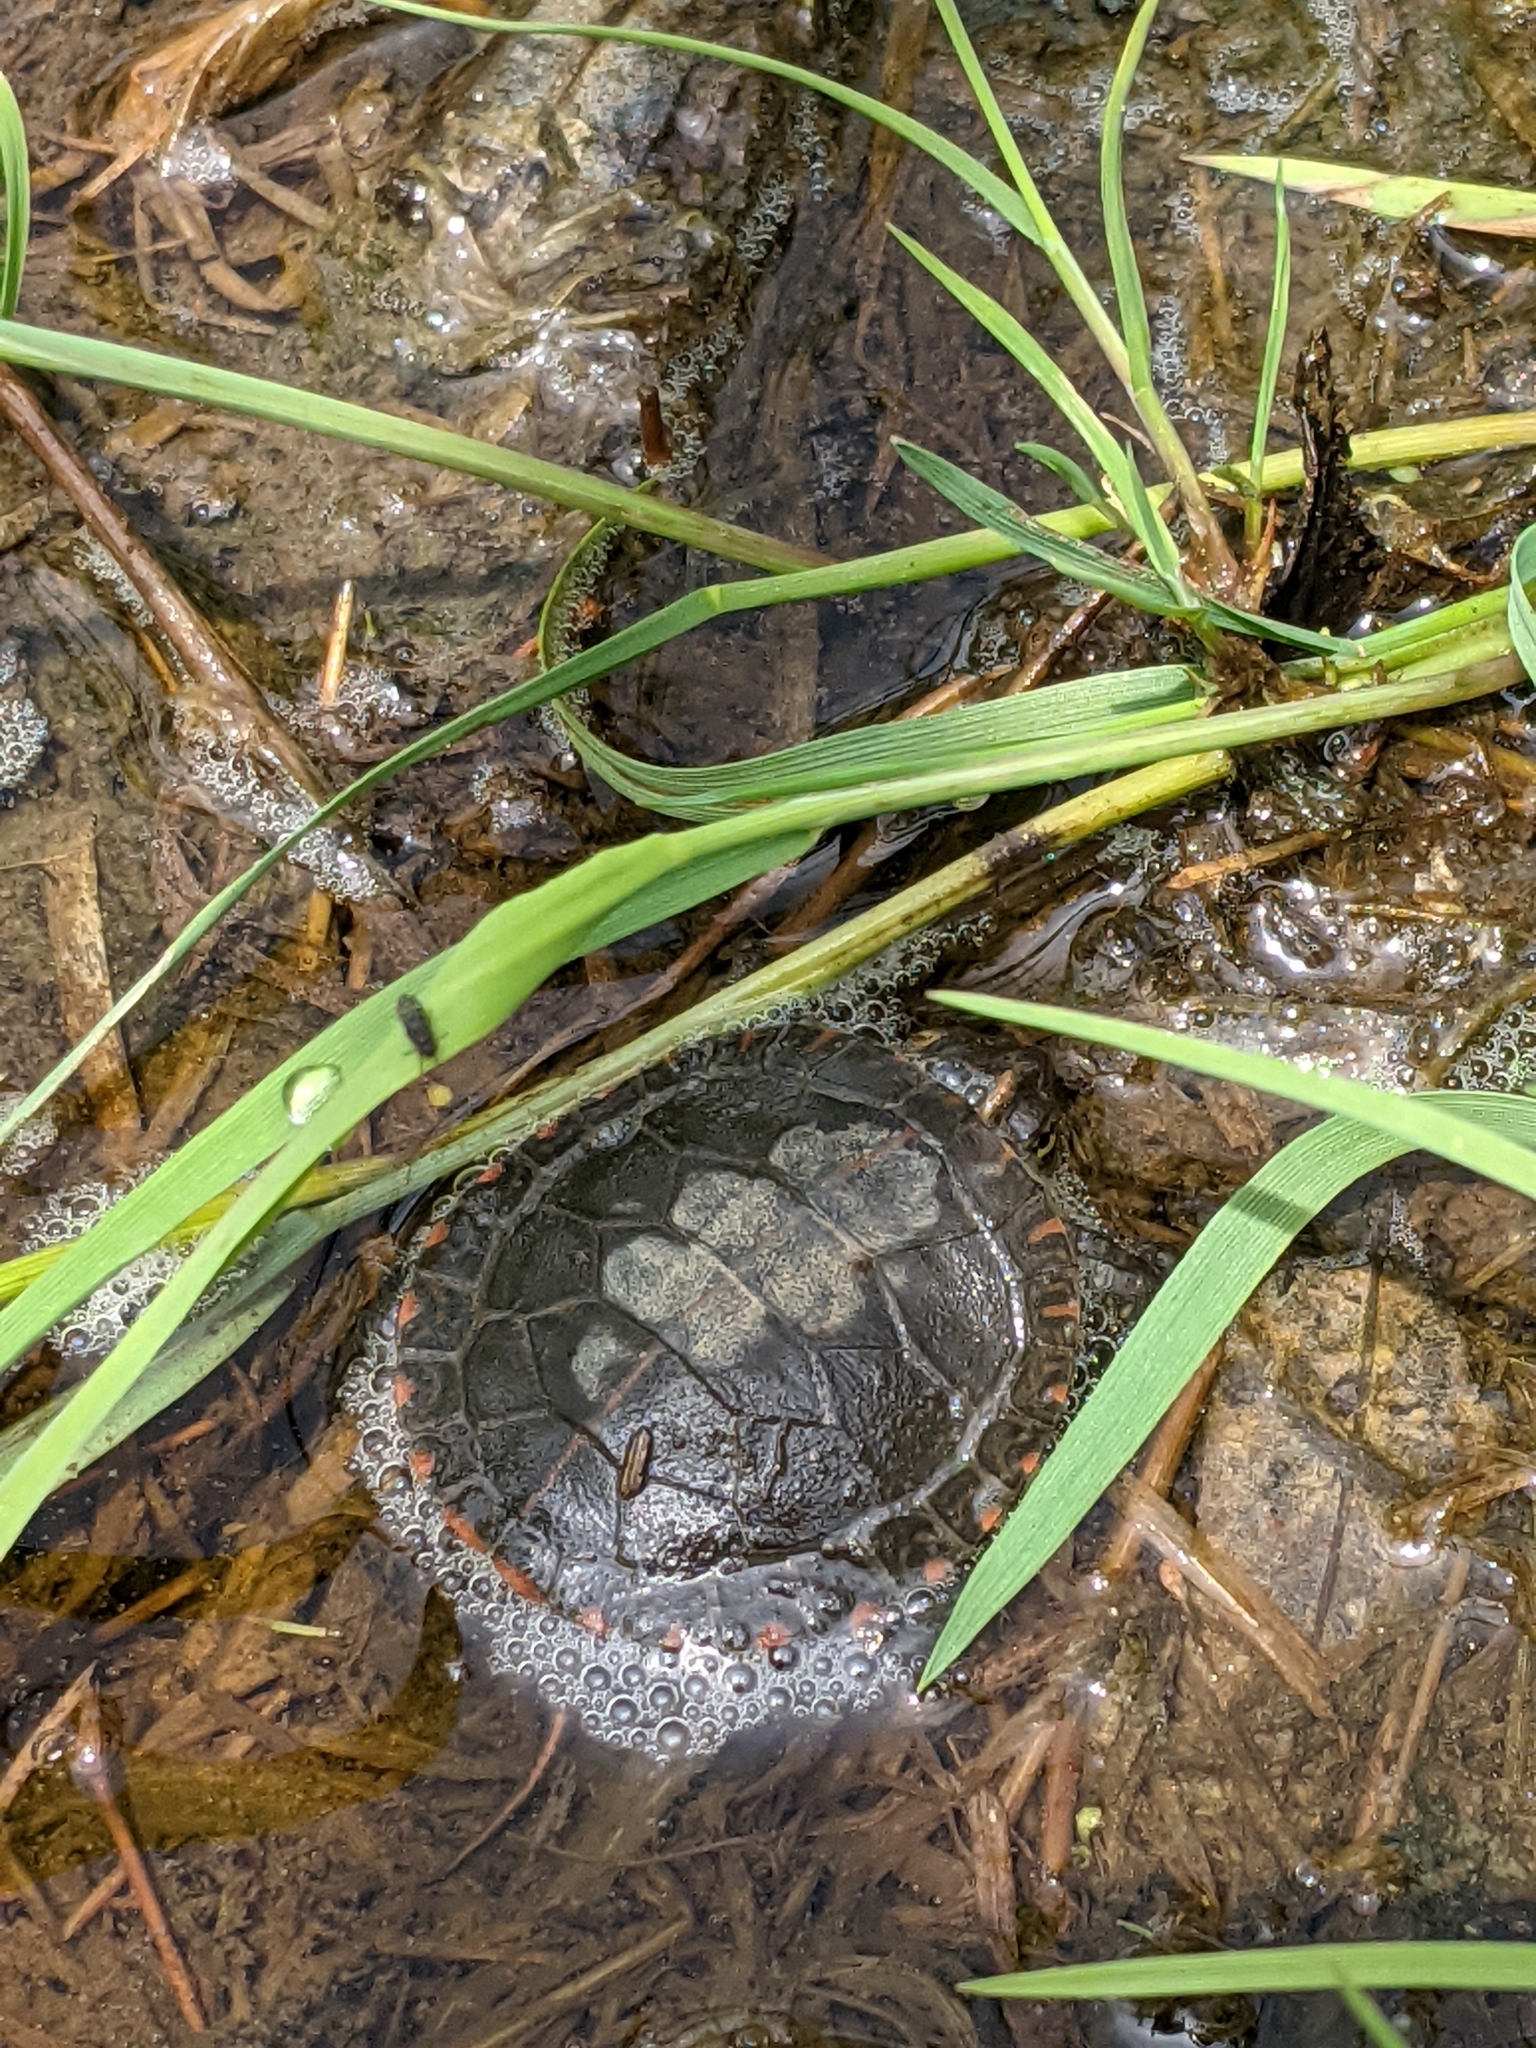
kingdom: Animalia
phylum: Chordata
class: Testudines
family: Emydidae
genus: Chrysemys
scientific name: Chrysemys picta
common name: Painted turtle
